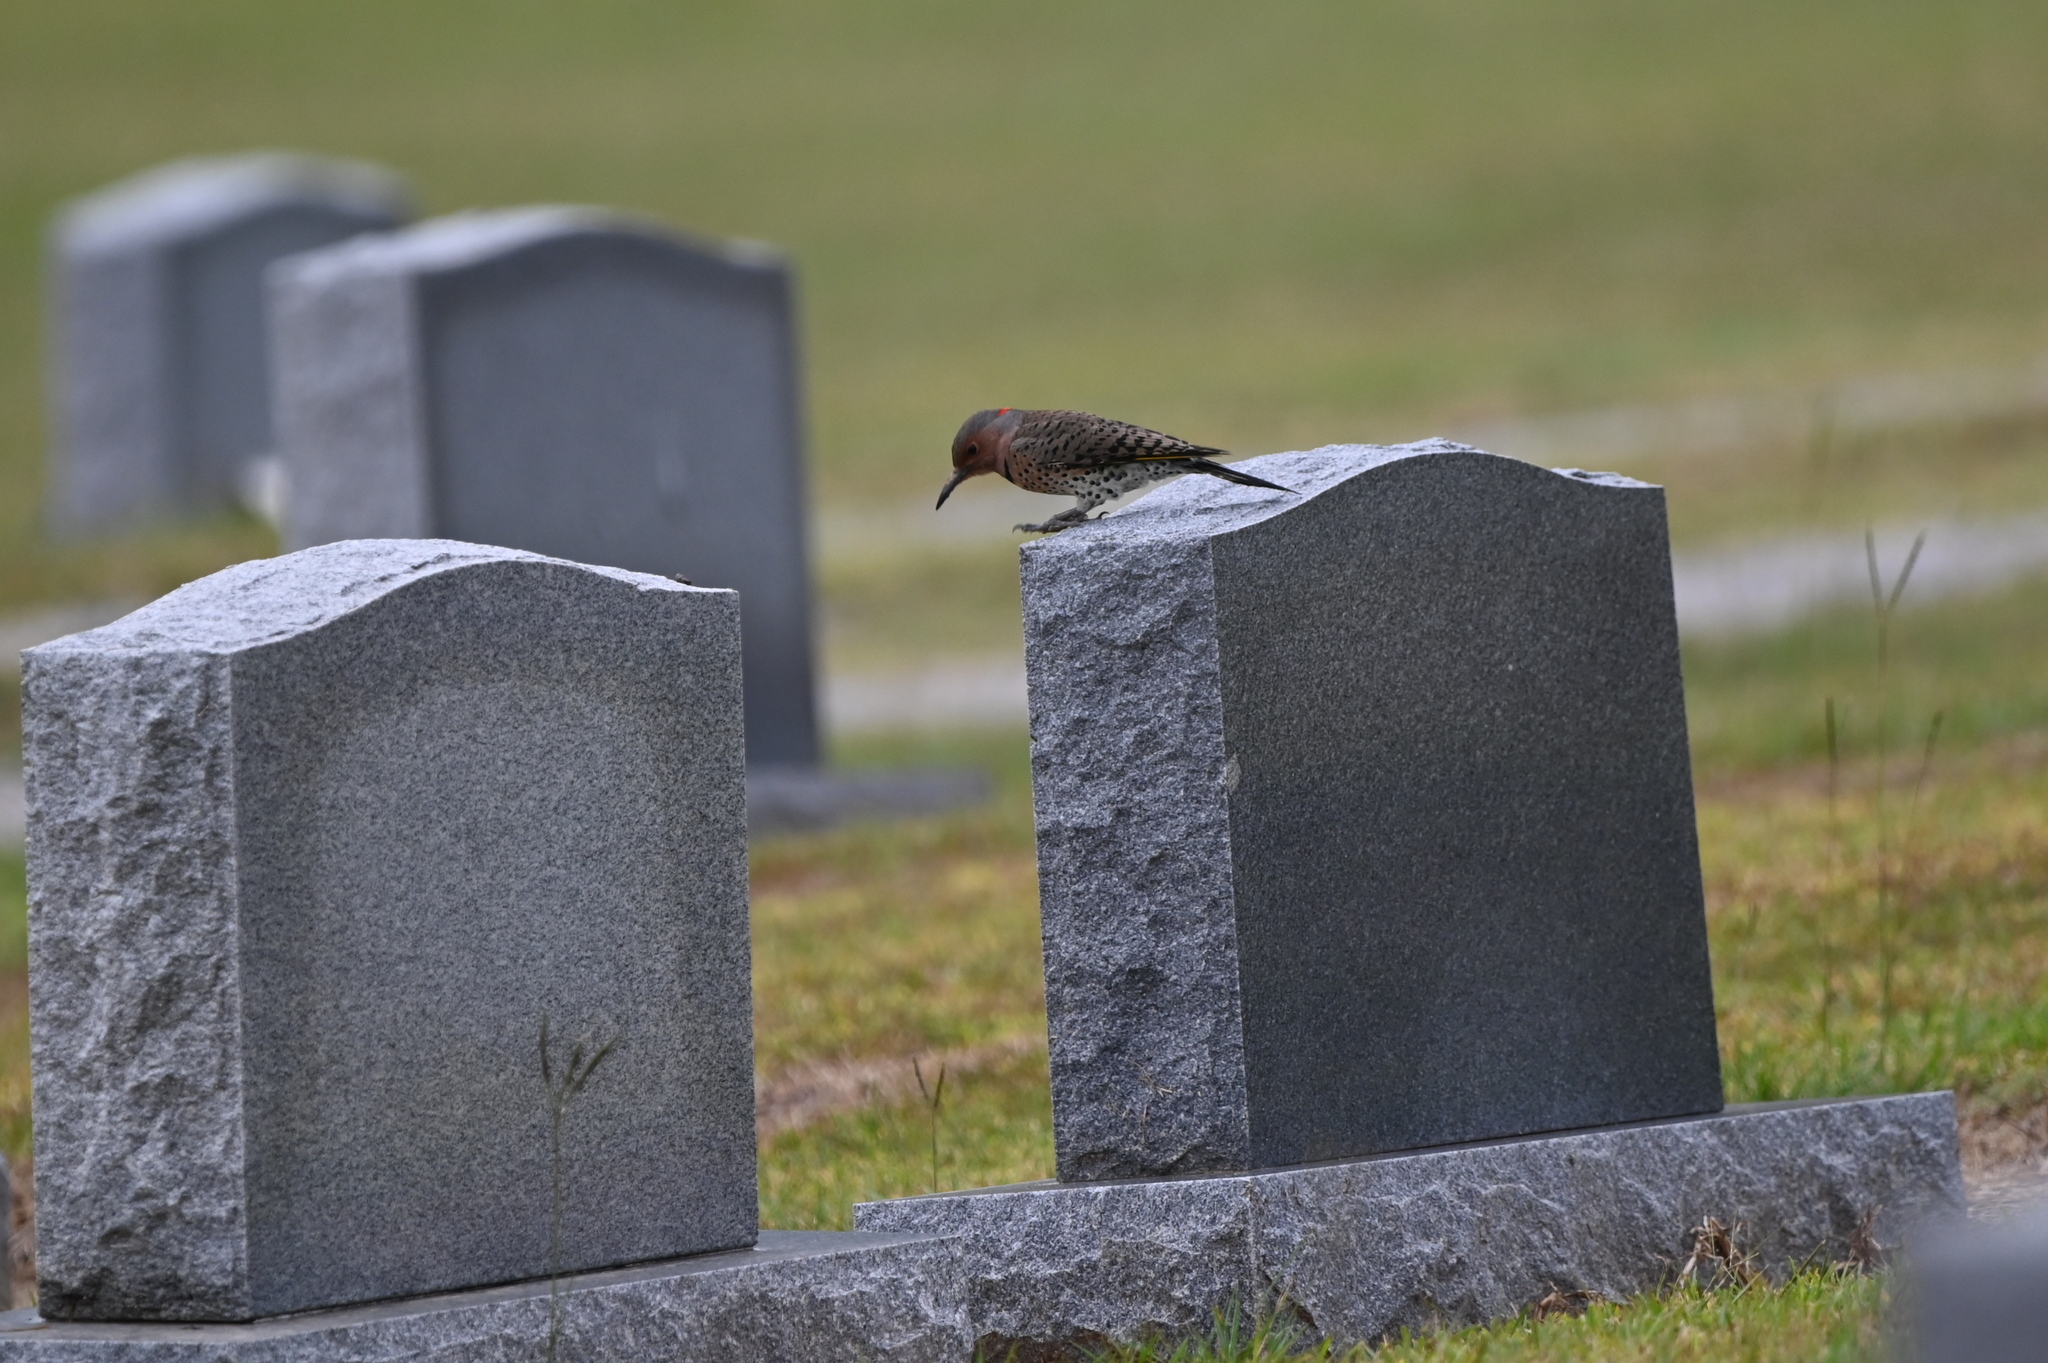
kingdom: Animalia
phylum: Chordata
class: Aves
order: Piciformes
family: Picidae
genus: Colaptes
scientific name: Colaptes auratus
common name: Northern flicker
